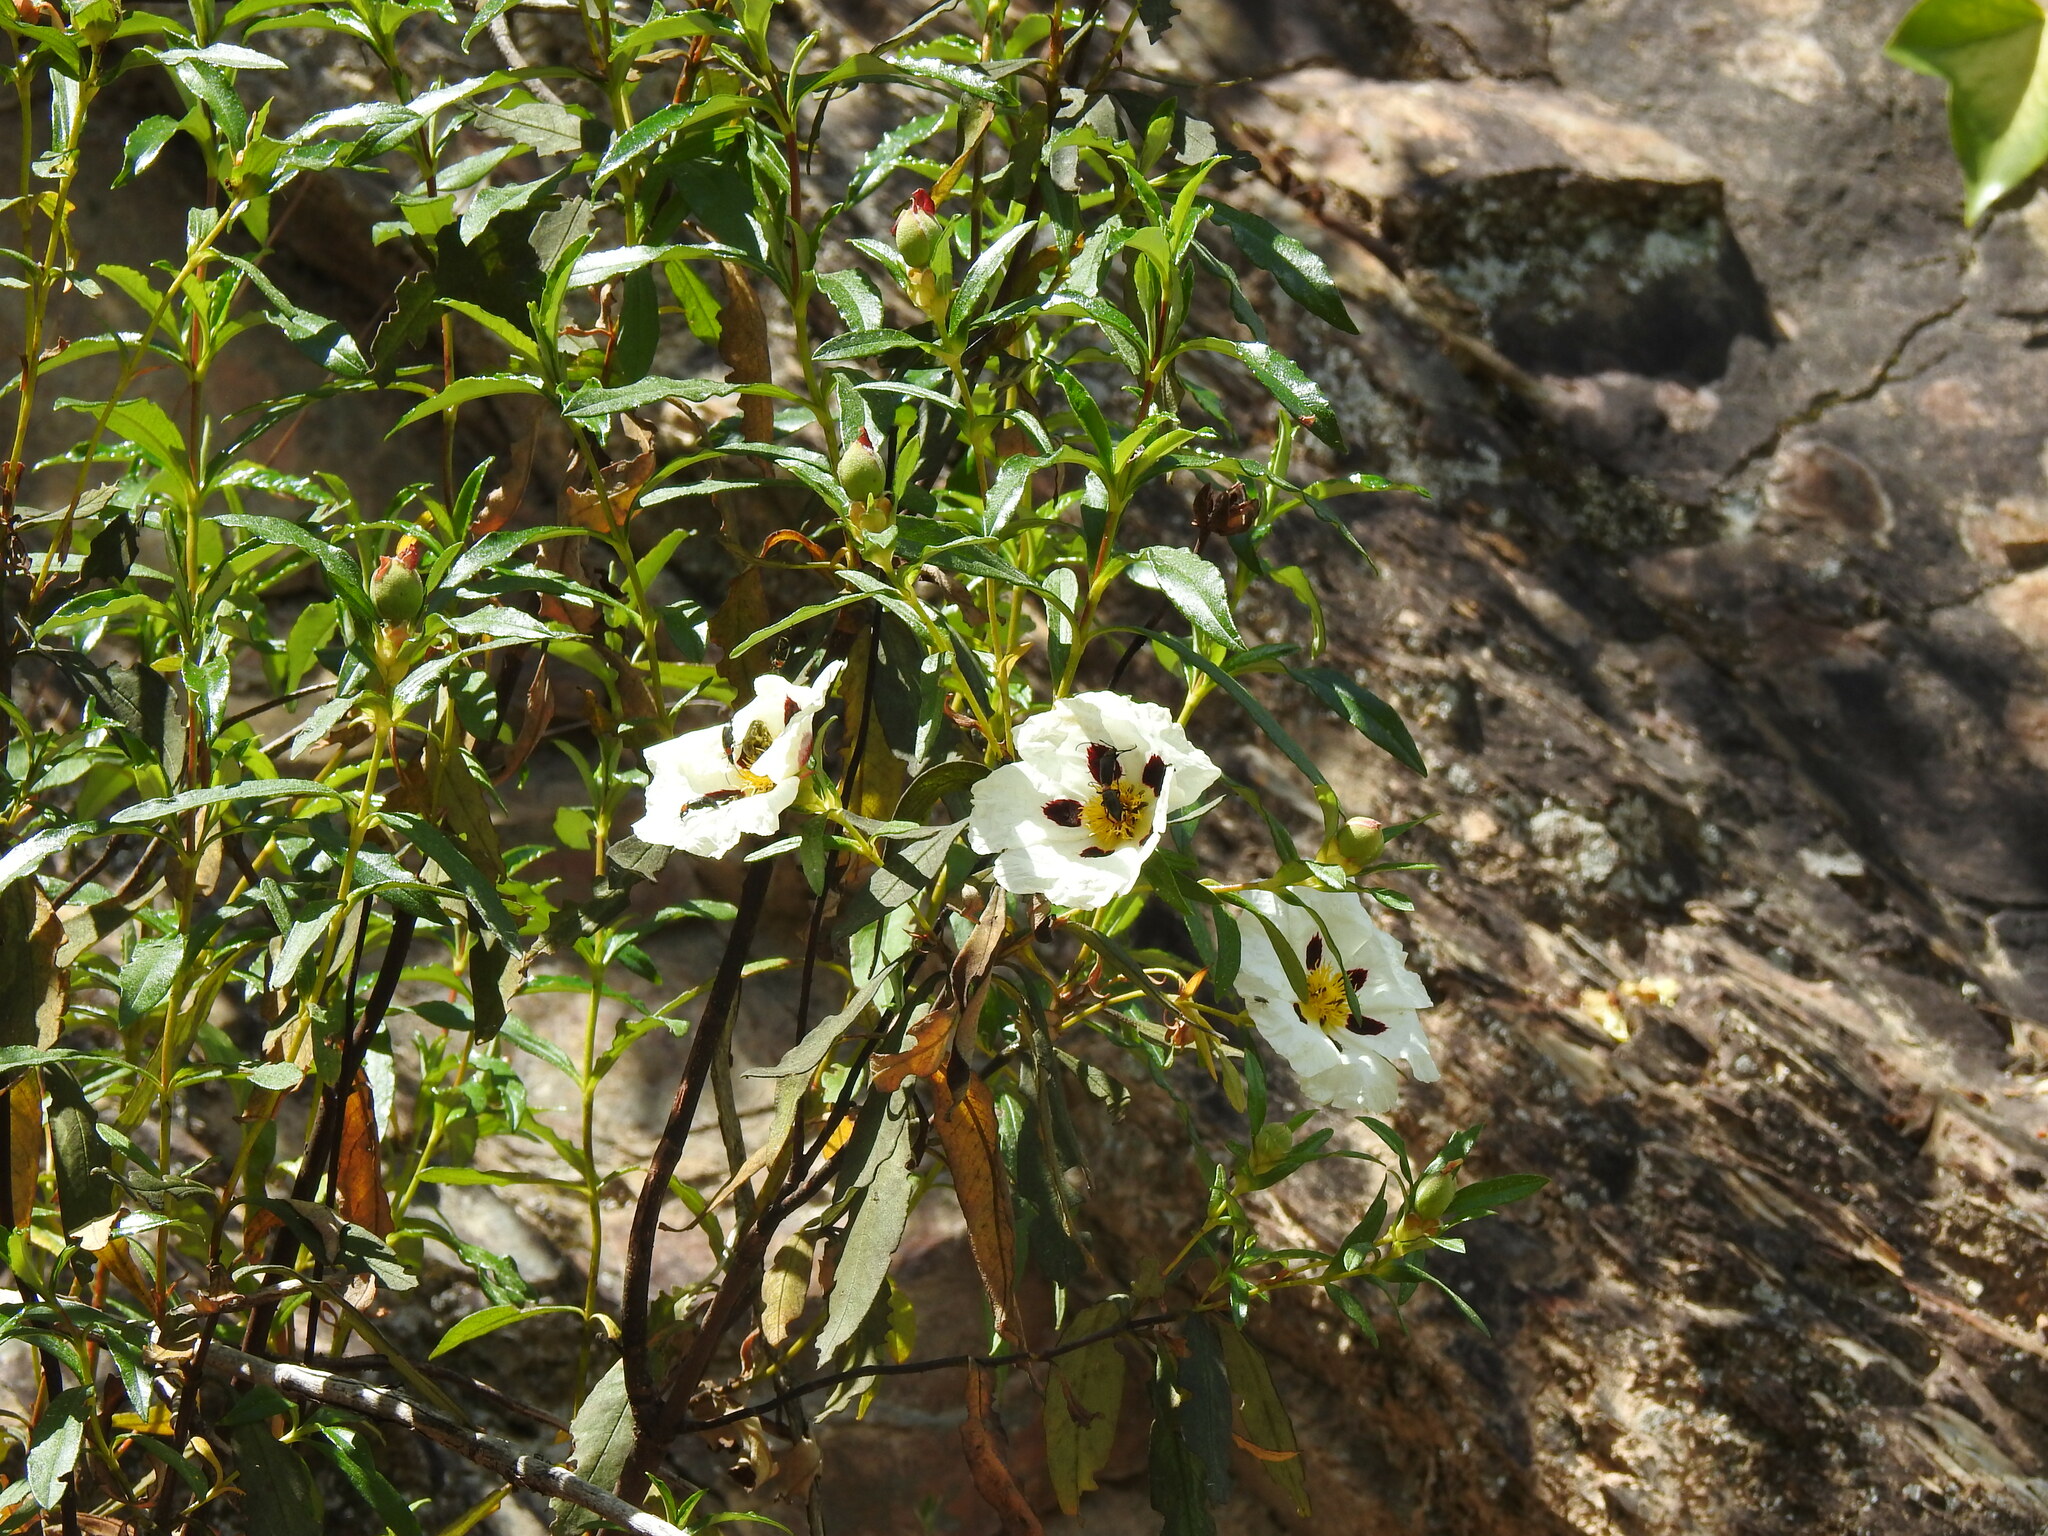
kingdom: Plantae
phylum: Tracheophyta
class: Magnoliopsida
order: Malvales
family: Cistaceae
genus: Cistus
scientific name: Cistus ladanifer
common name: Common gum cistus
